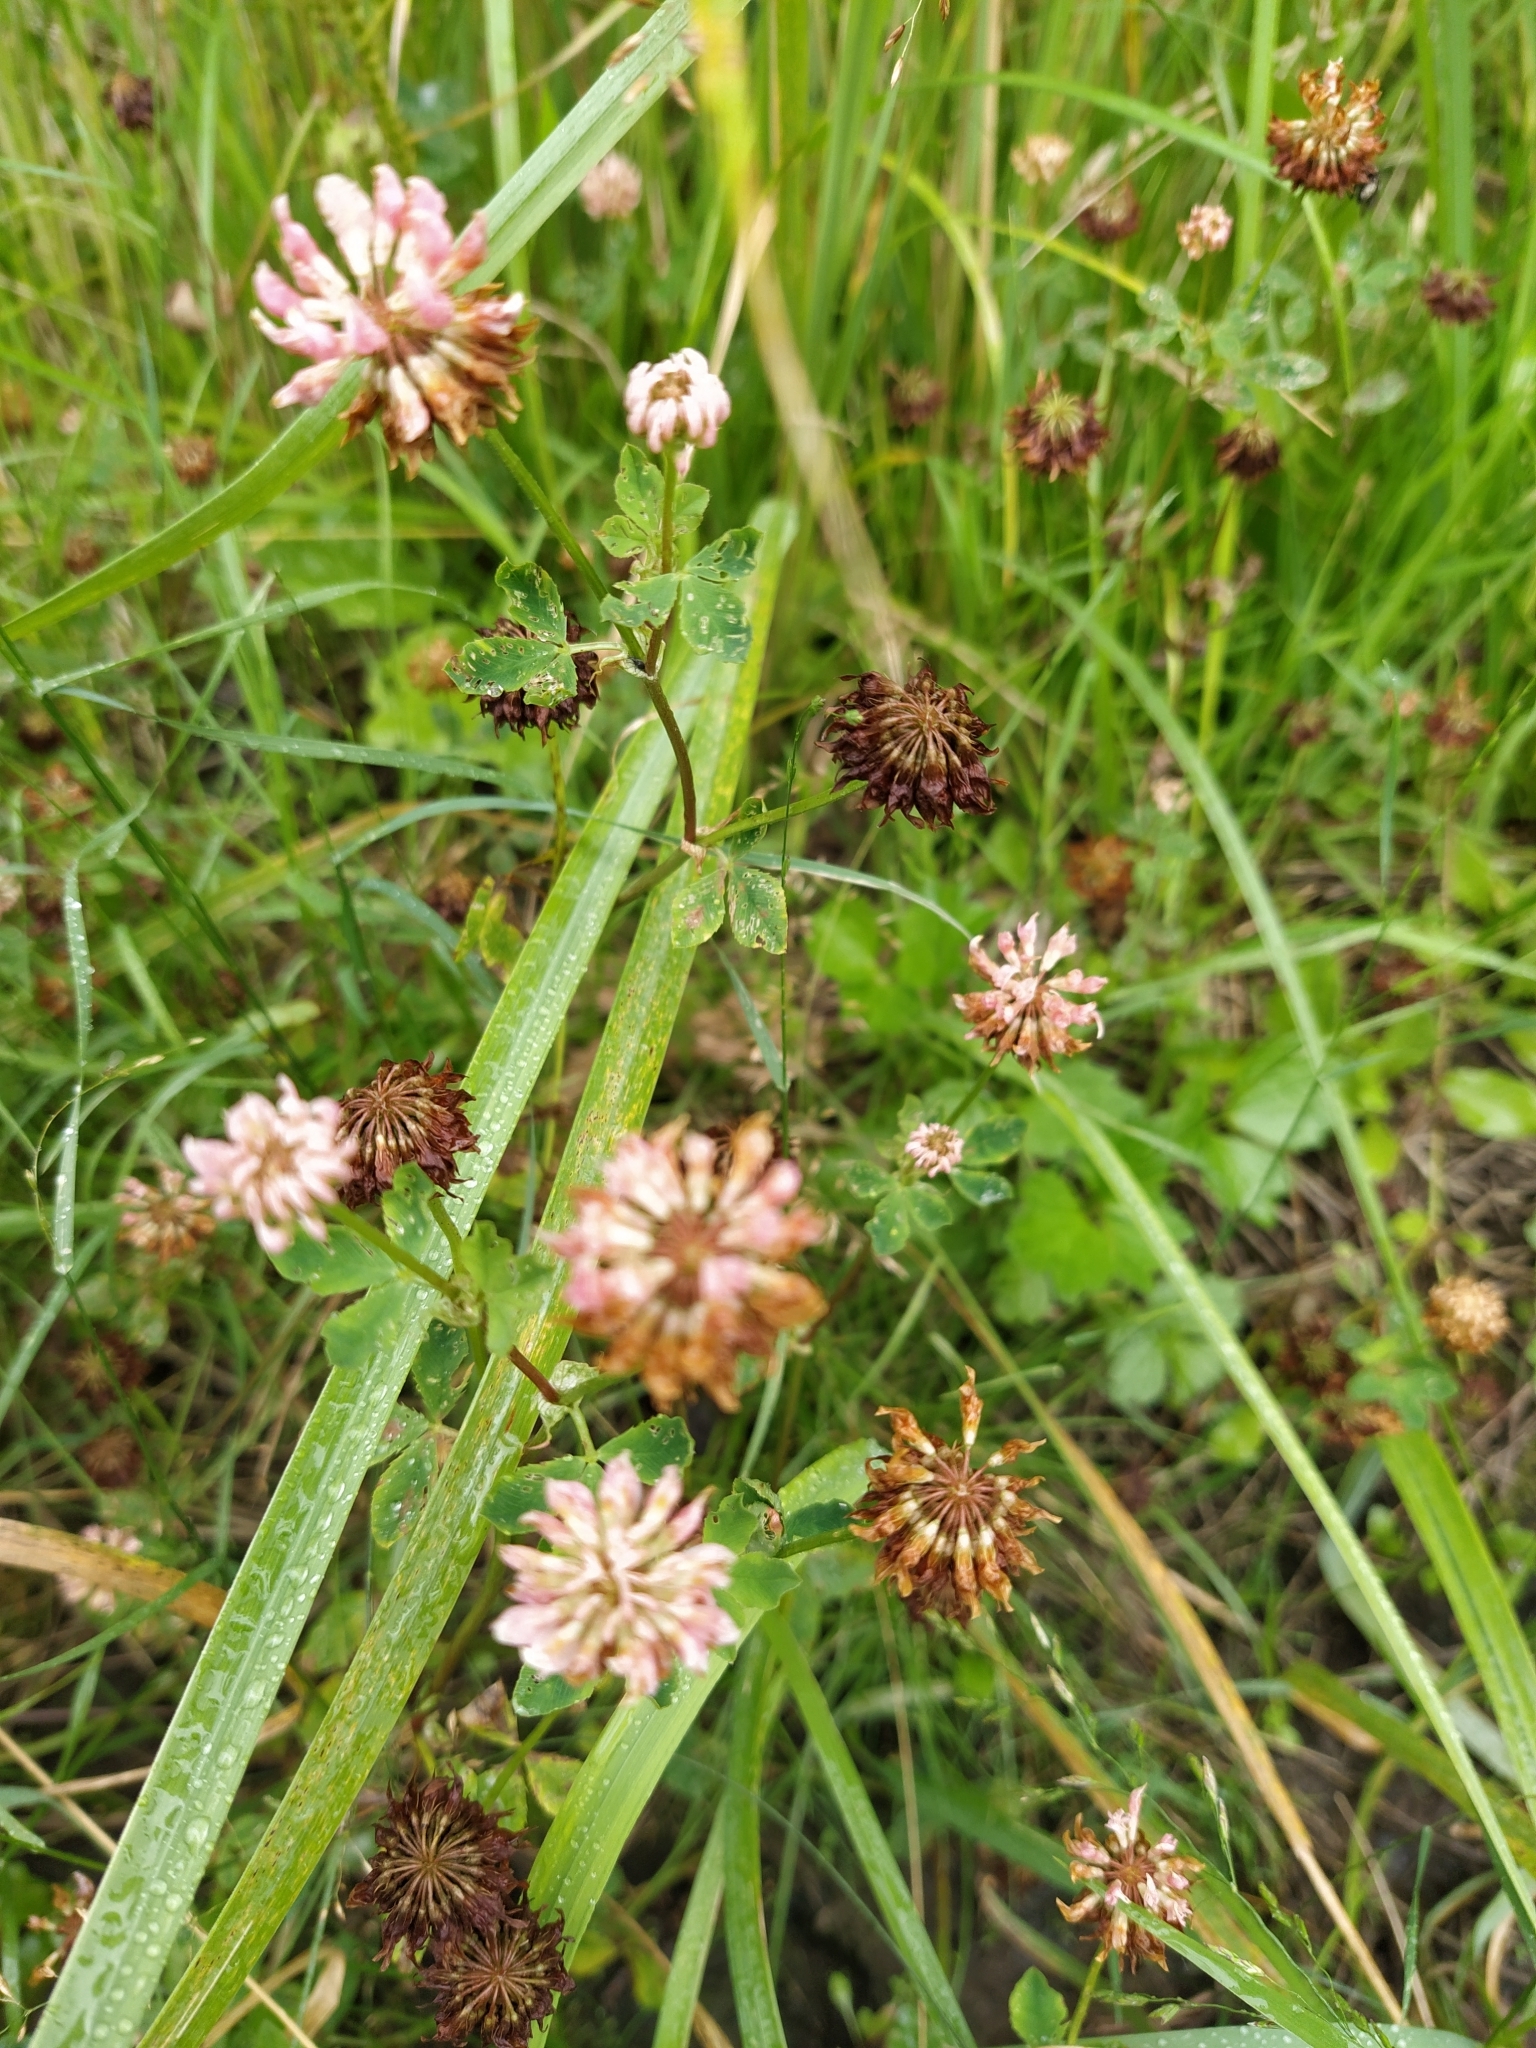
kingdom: Plantae
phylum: Tracheophyta
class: Magnoliopsida
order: Fabales
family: Fabaceae
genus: Trifolium
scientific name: Trifolium hybridum
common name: Alsike clover
